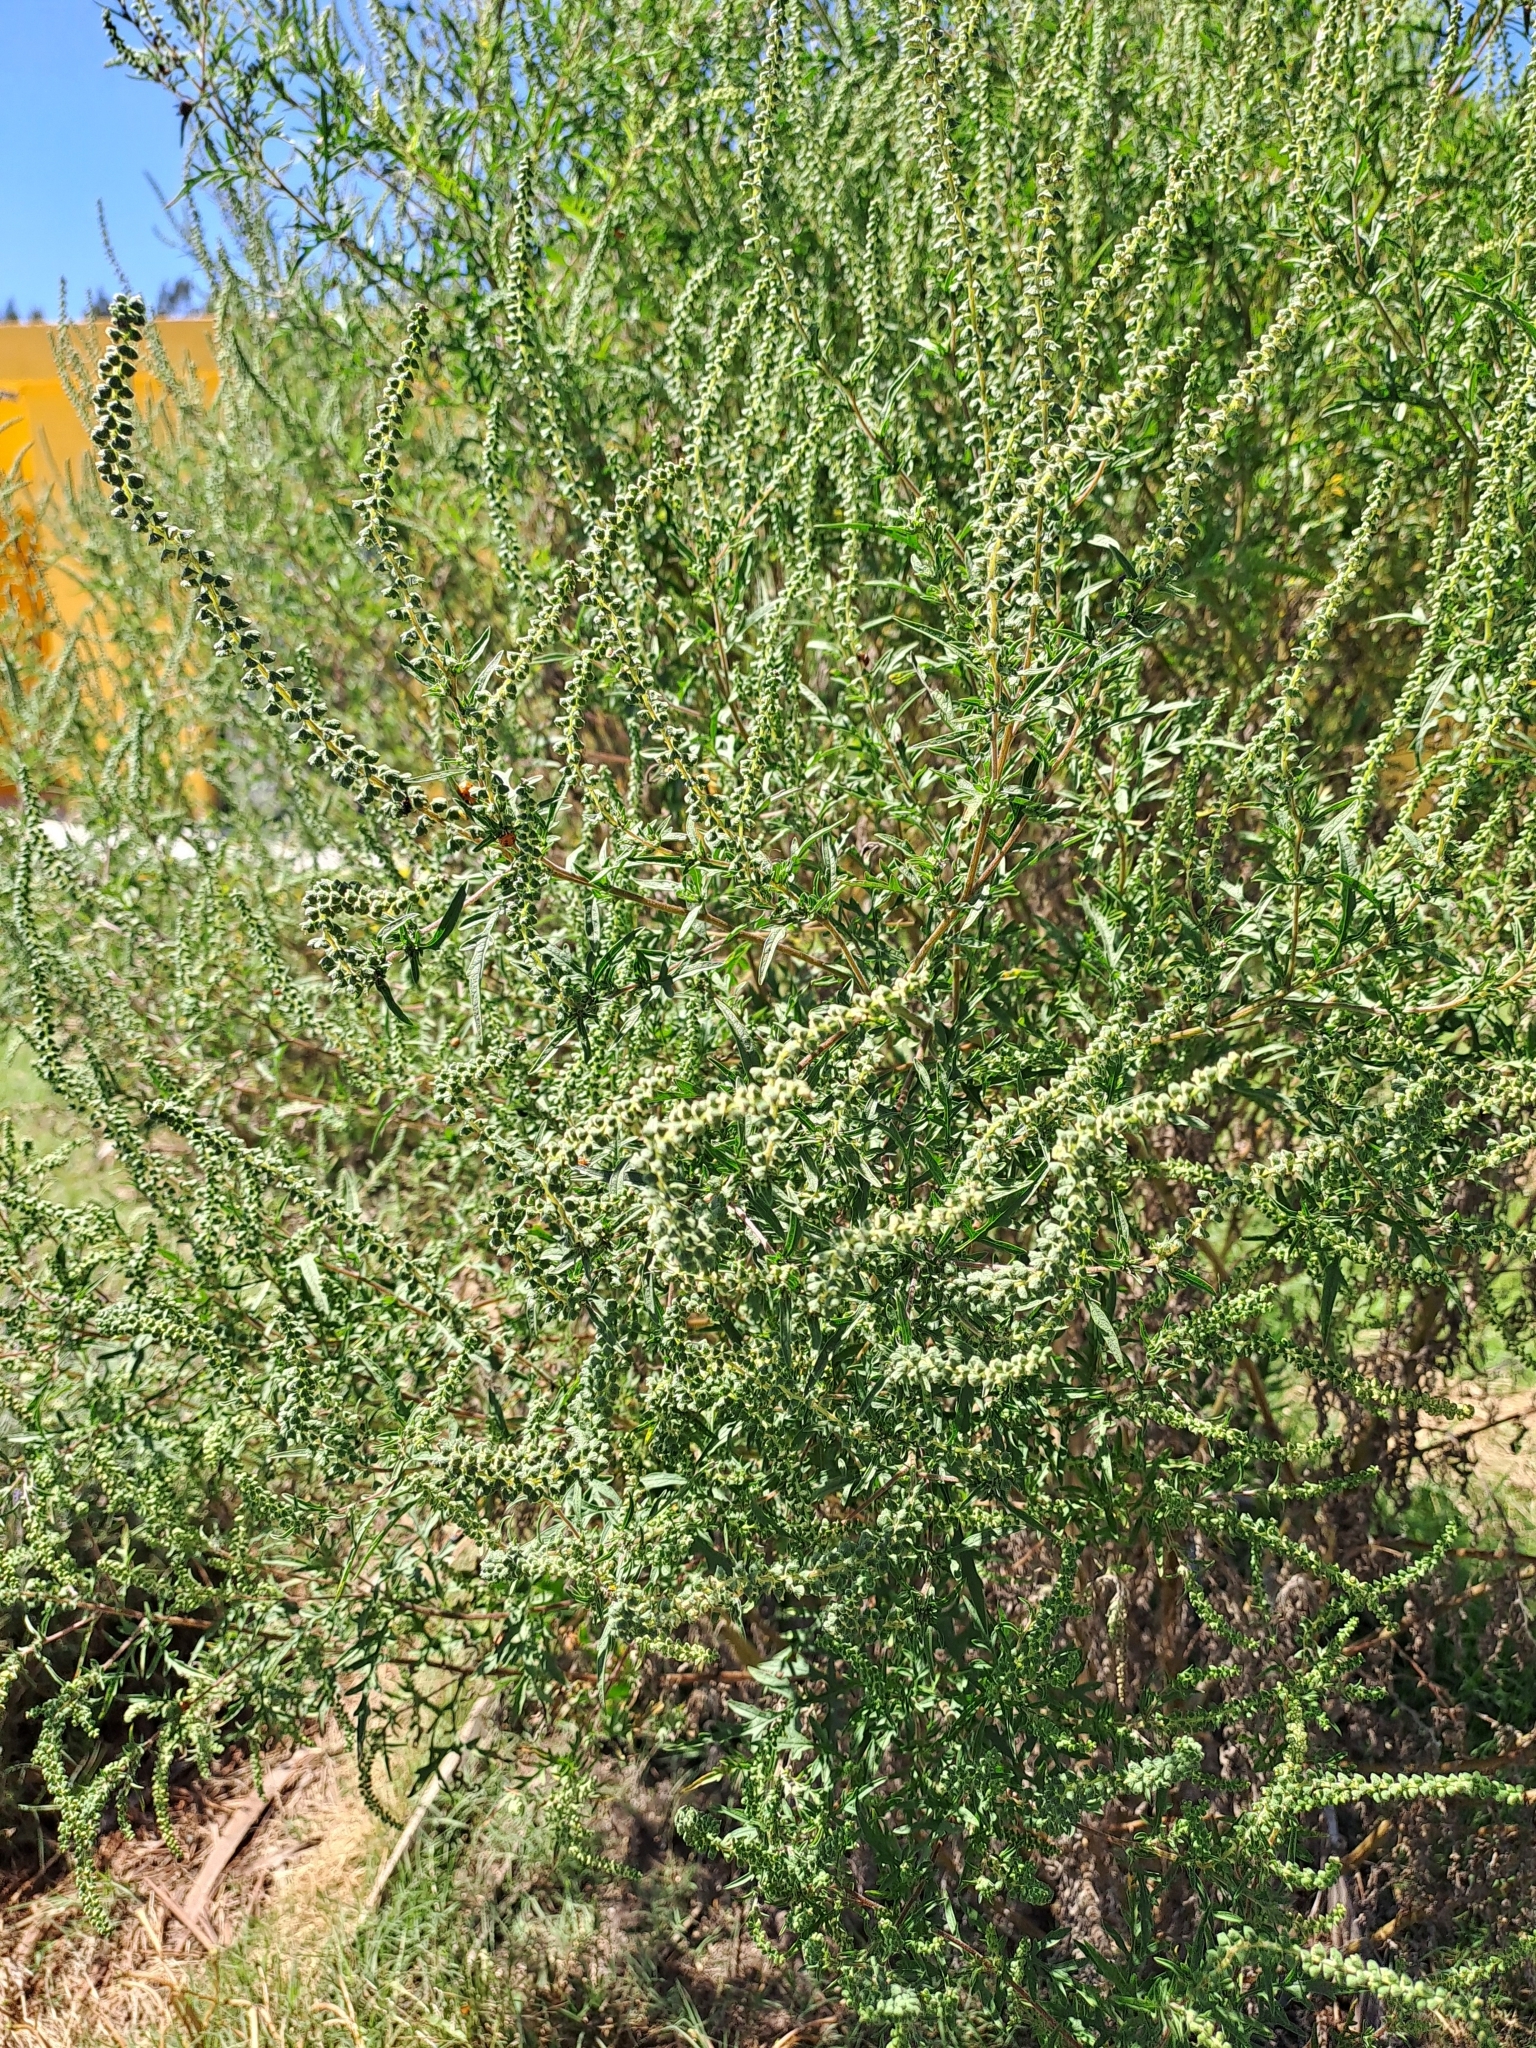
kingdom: Plantae
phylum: Tracheophyta
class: Magnoliopsida
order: Asterales
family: Asteraceae
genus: Ambrosia
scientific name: Ambrosia artemisiifolia
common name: Annual ragweed
